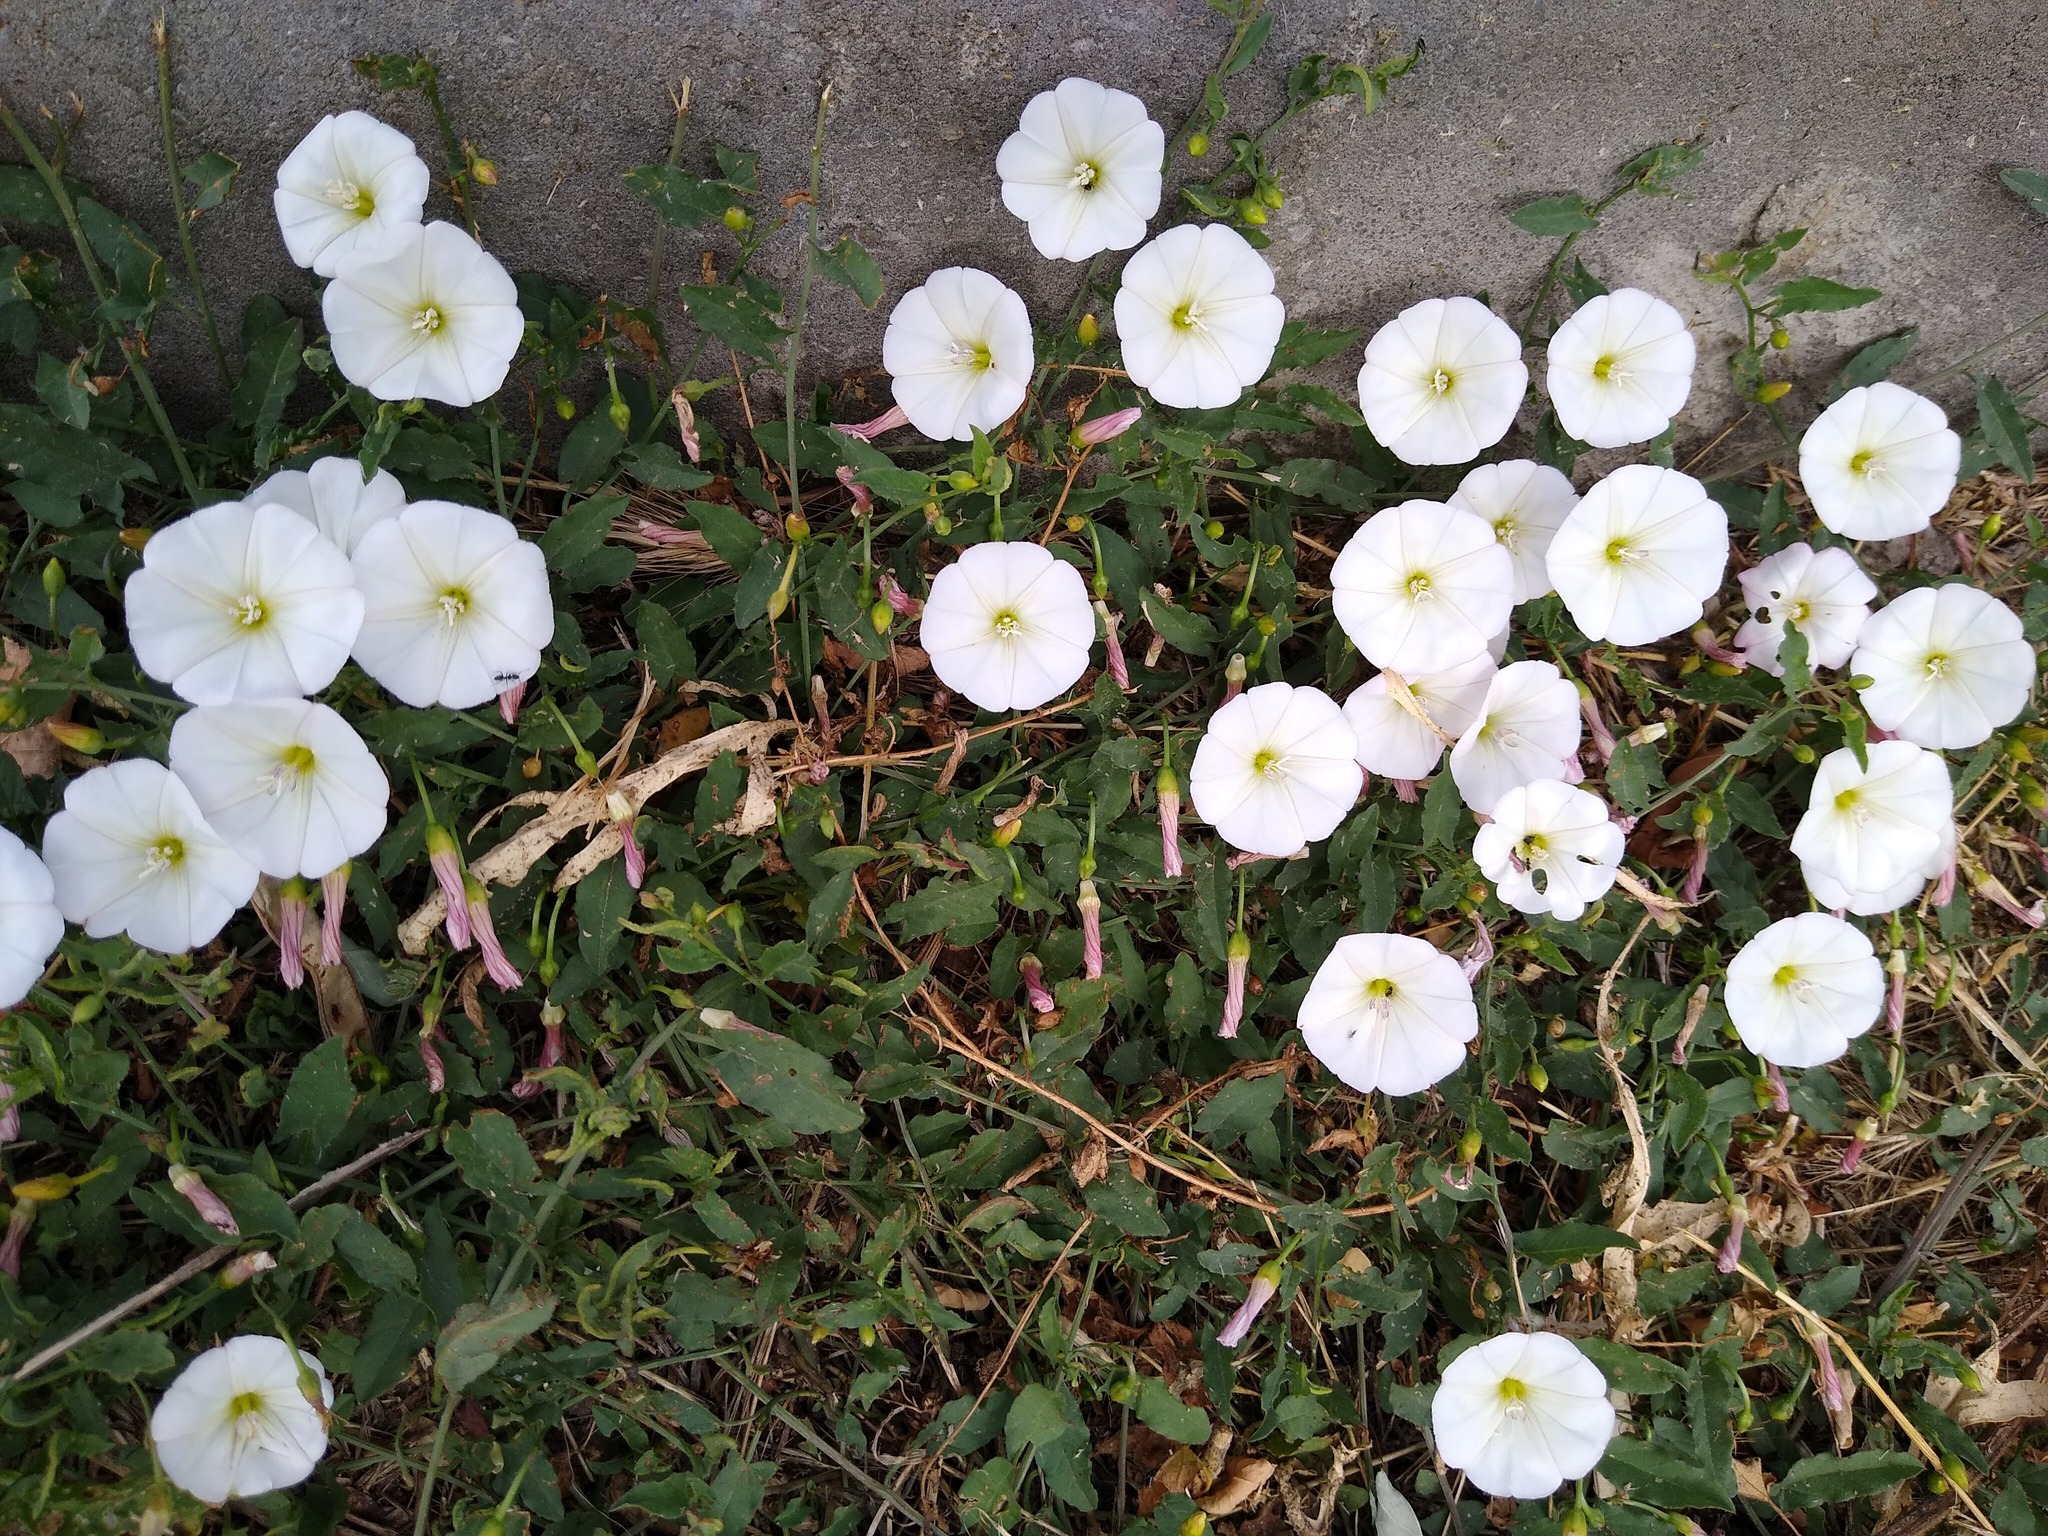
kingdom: Plantae
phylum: Tracheophyta
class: Magnoliopsida
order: Solanales
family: Convolvulaceae
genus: Convolvulus
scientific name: Convolvulus arvensis
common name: Field bindweed
